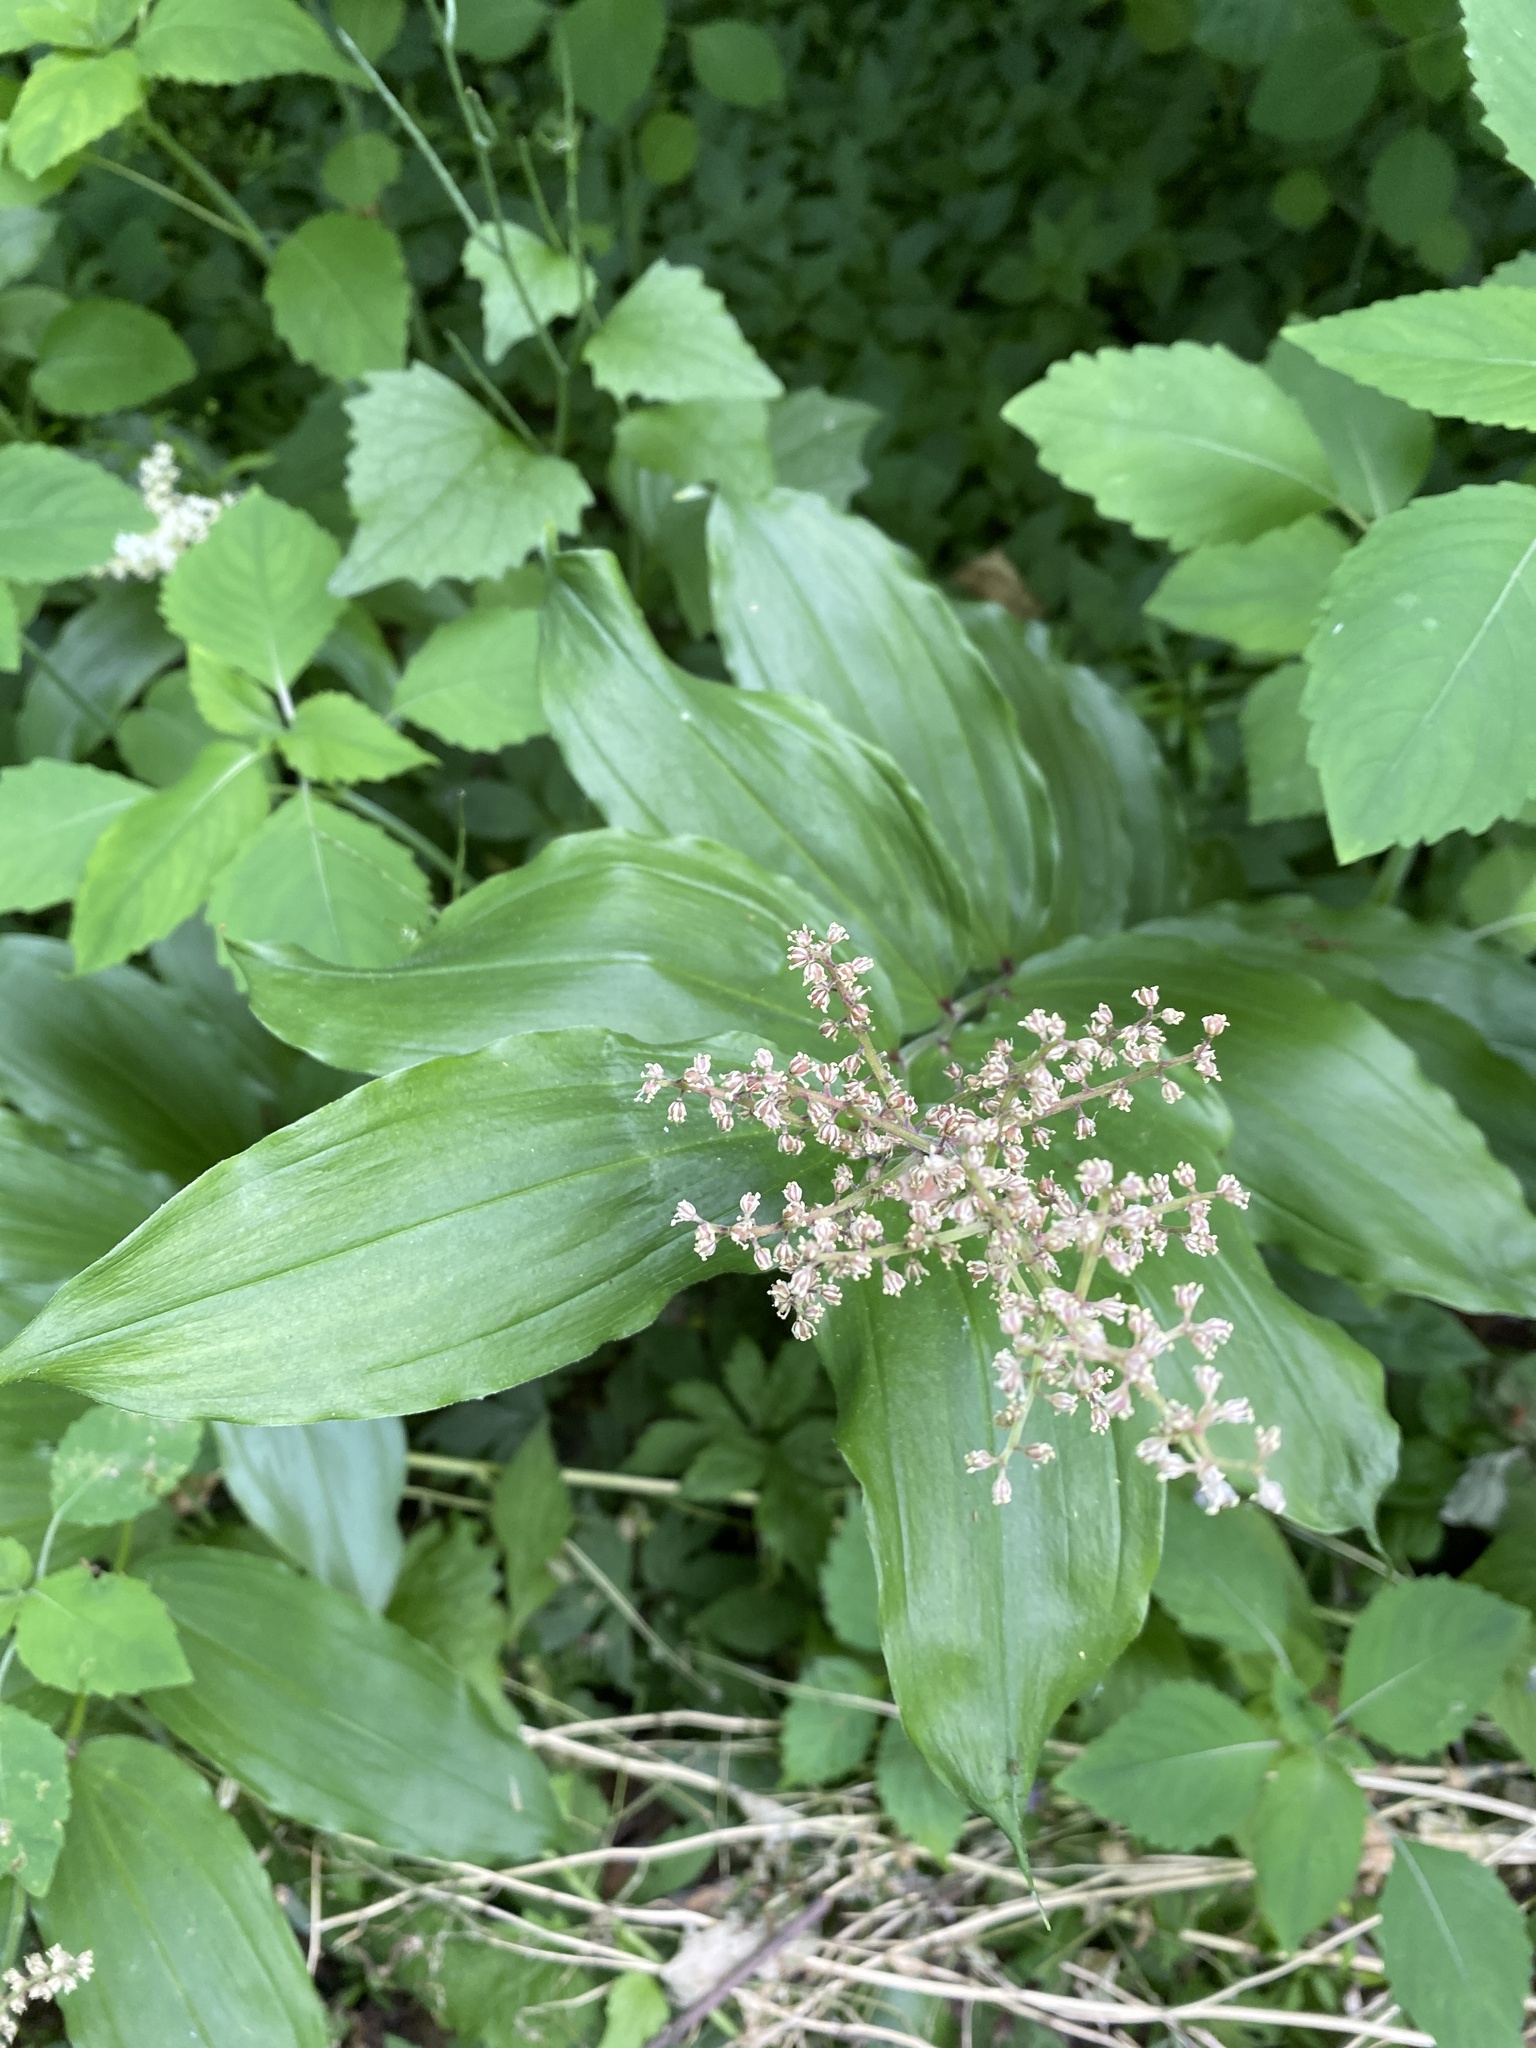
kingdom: Plantae
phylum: Tracheophyta
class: Liliopsida
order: Asparagales
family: Asparagaceae
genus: Maianthemum
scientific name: Maianthemum racemosum
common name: False spikenard
